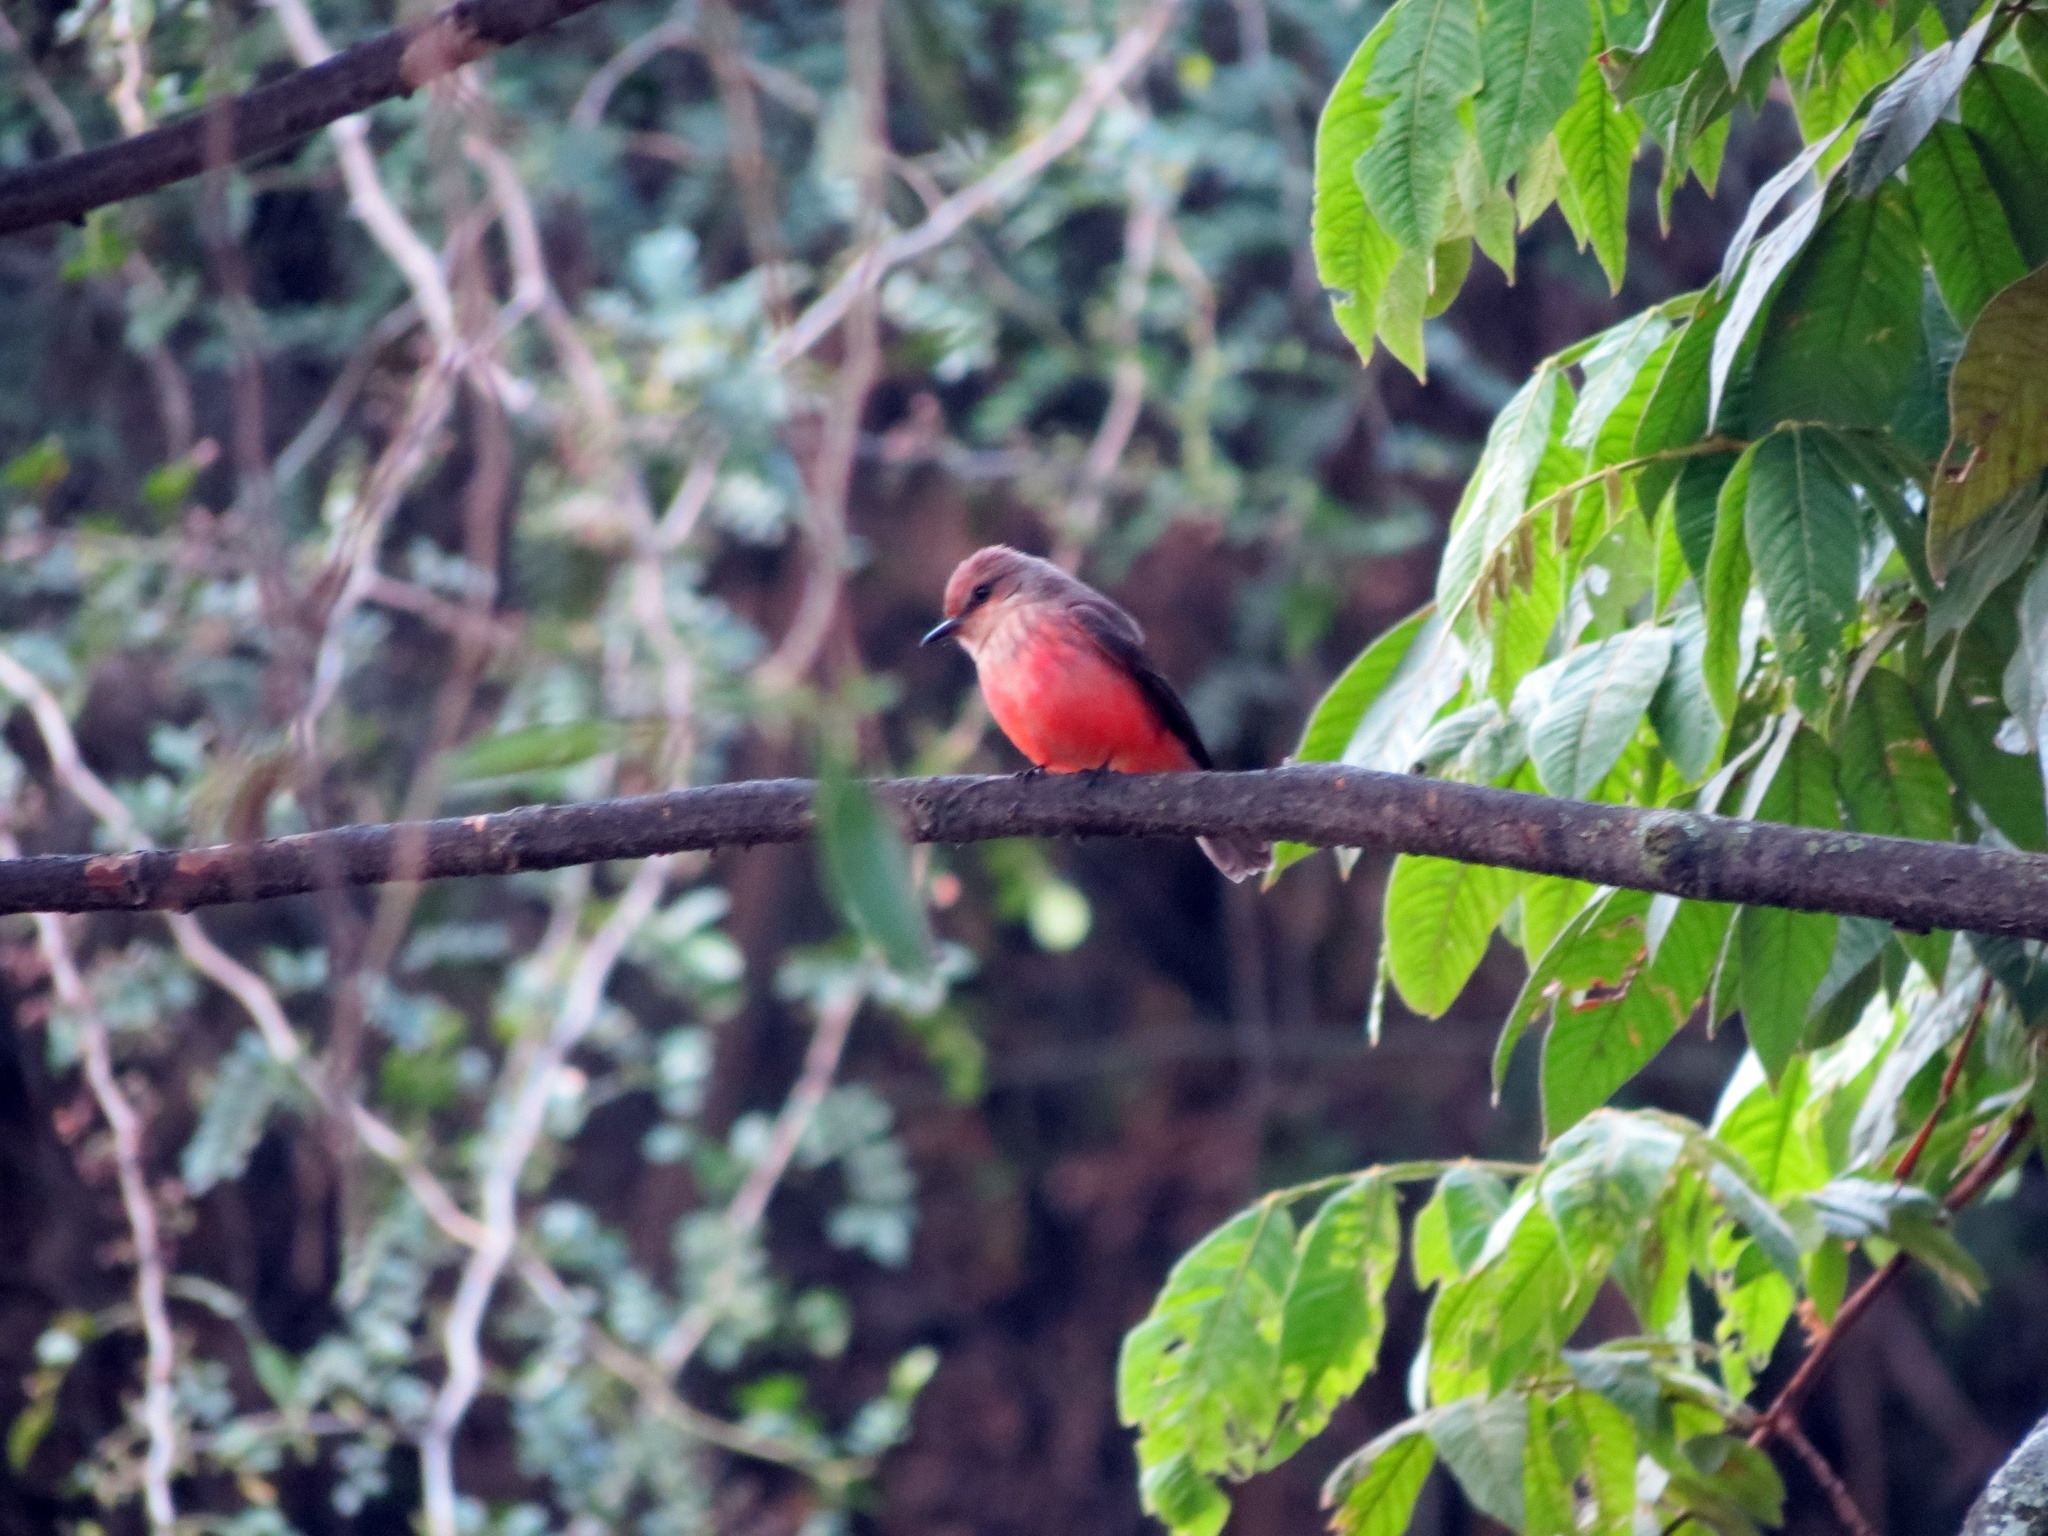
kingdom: Animalia
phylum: Chordata
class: Aves
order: Passeriformes
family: Tyrannidae
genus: Pyrocephalus
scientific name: Pyrocephalus rubinus
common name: Vermilion flycatcher
